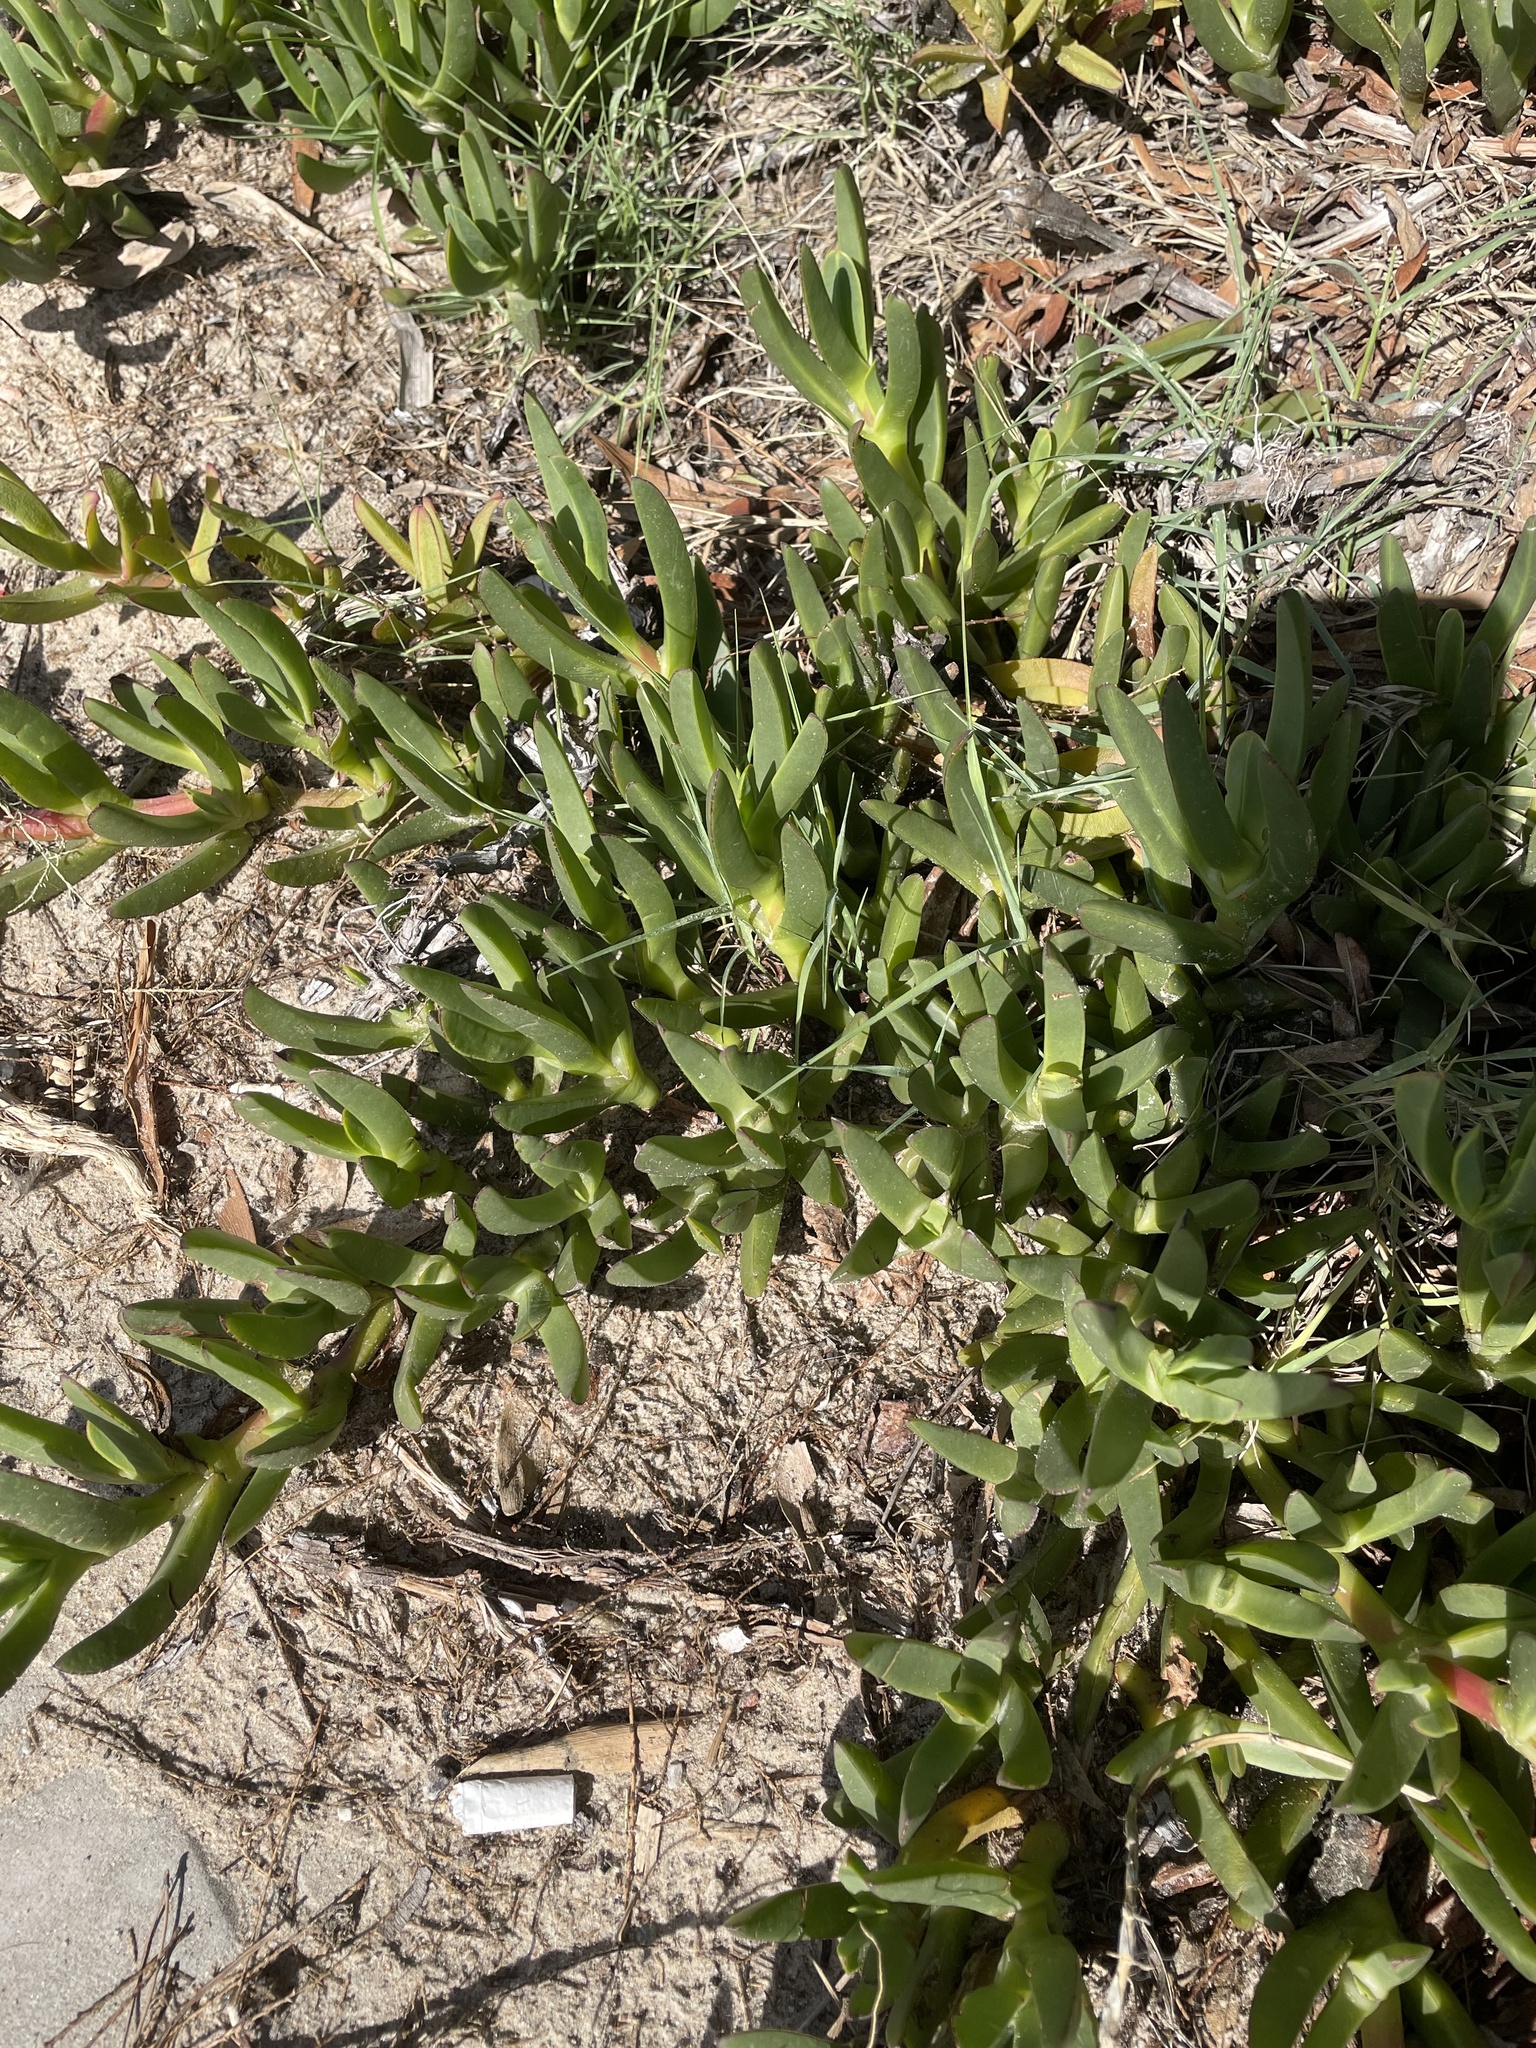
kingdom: Plantae
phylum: Tracheophyta
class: Magnoliopsida
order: Caryophyllales
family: Aizoaceae
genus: Carpobrotus
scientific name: Carpobrotus edulis
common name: Hottentot-fig
